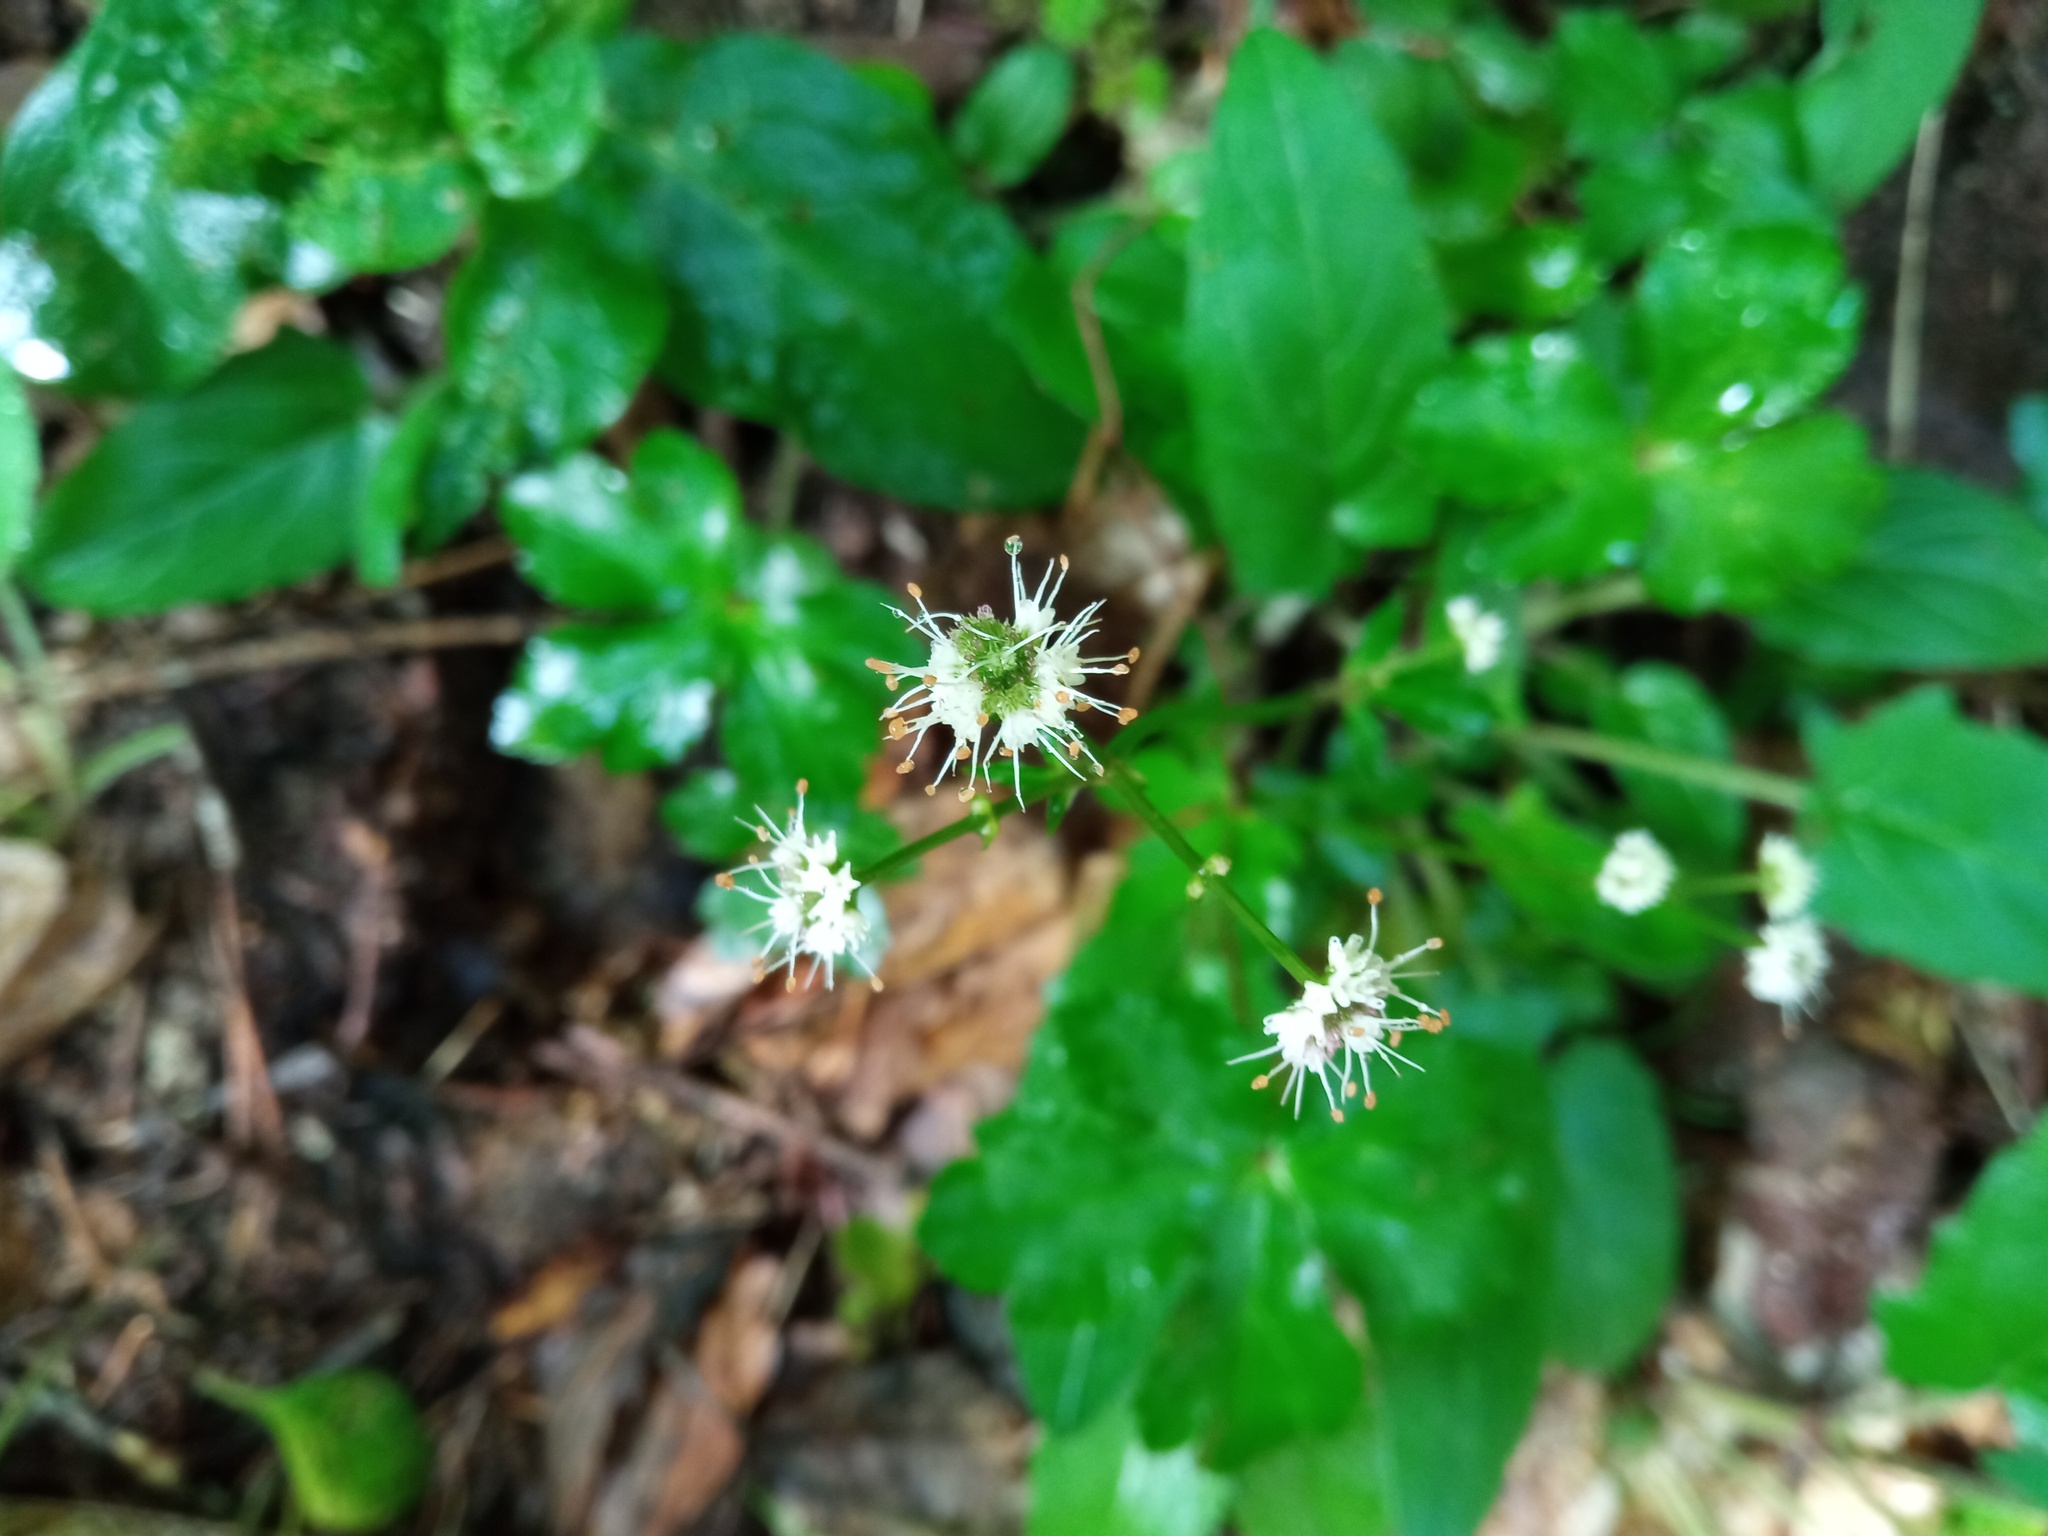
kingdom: Plantae
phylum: Tracheophyta
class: Magnoliopsida
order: Apiales
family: Apiaceae
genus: Sanicula
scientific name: Sanicula europaea
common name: Sanicle
